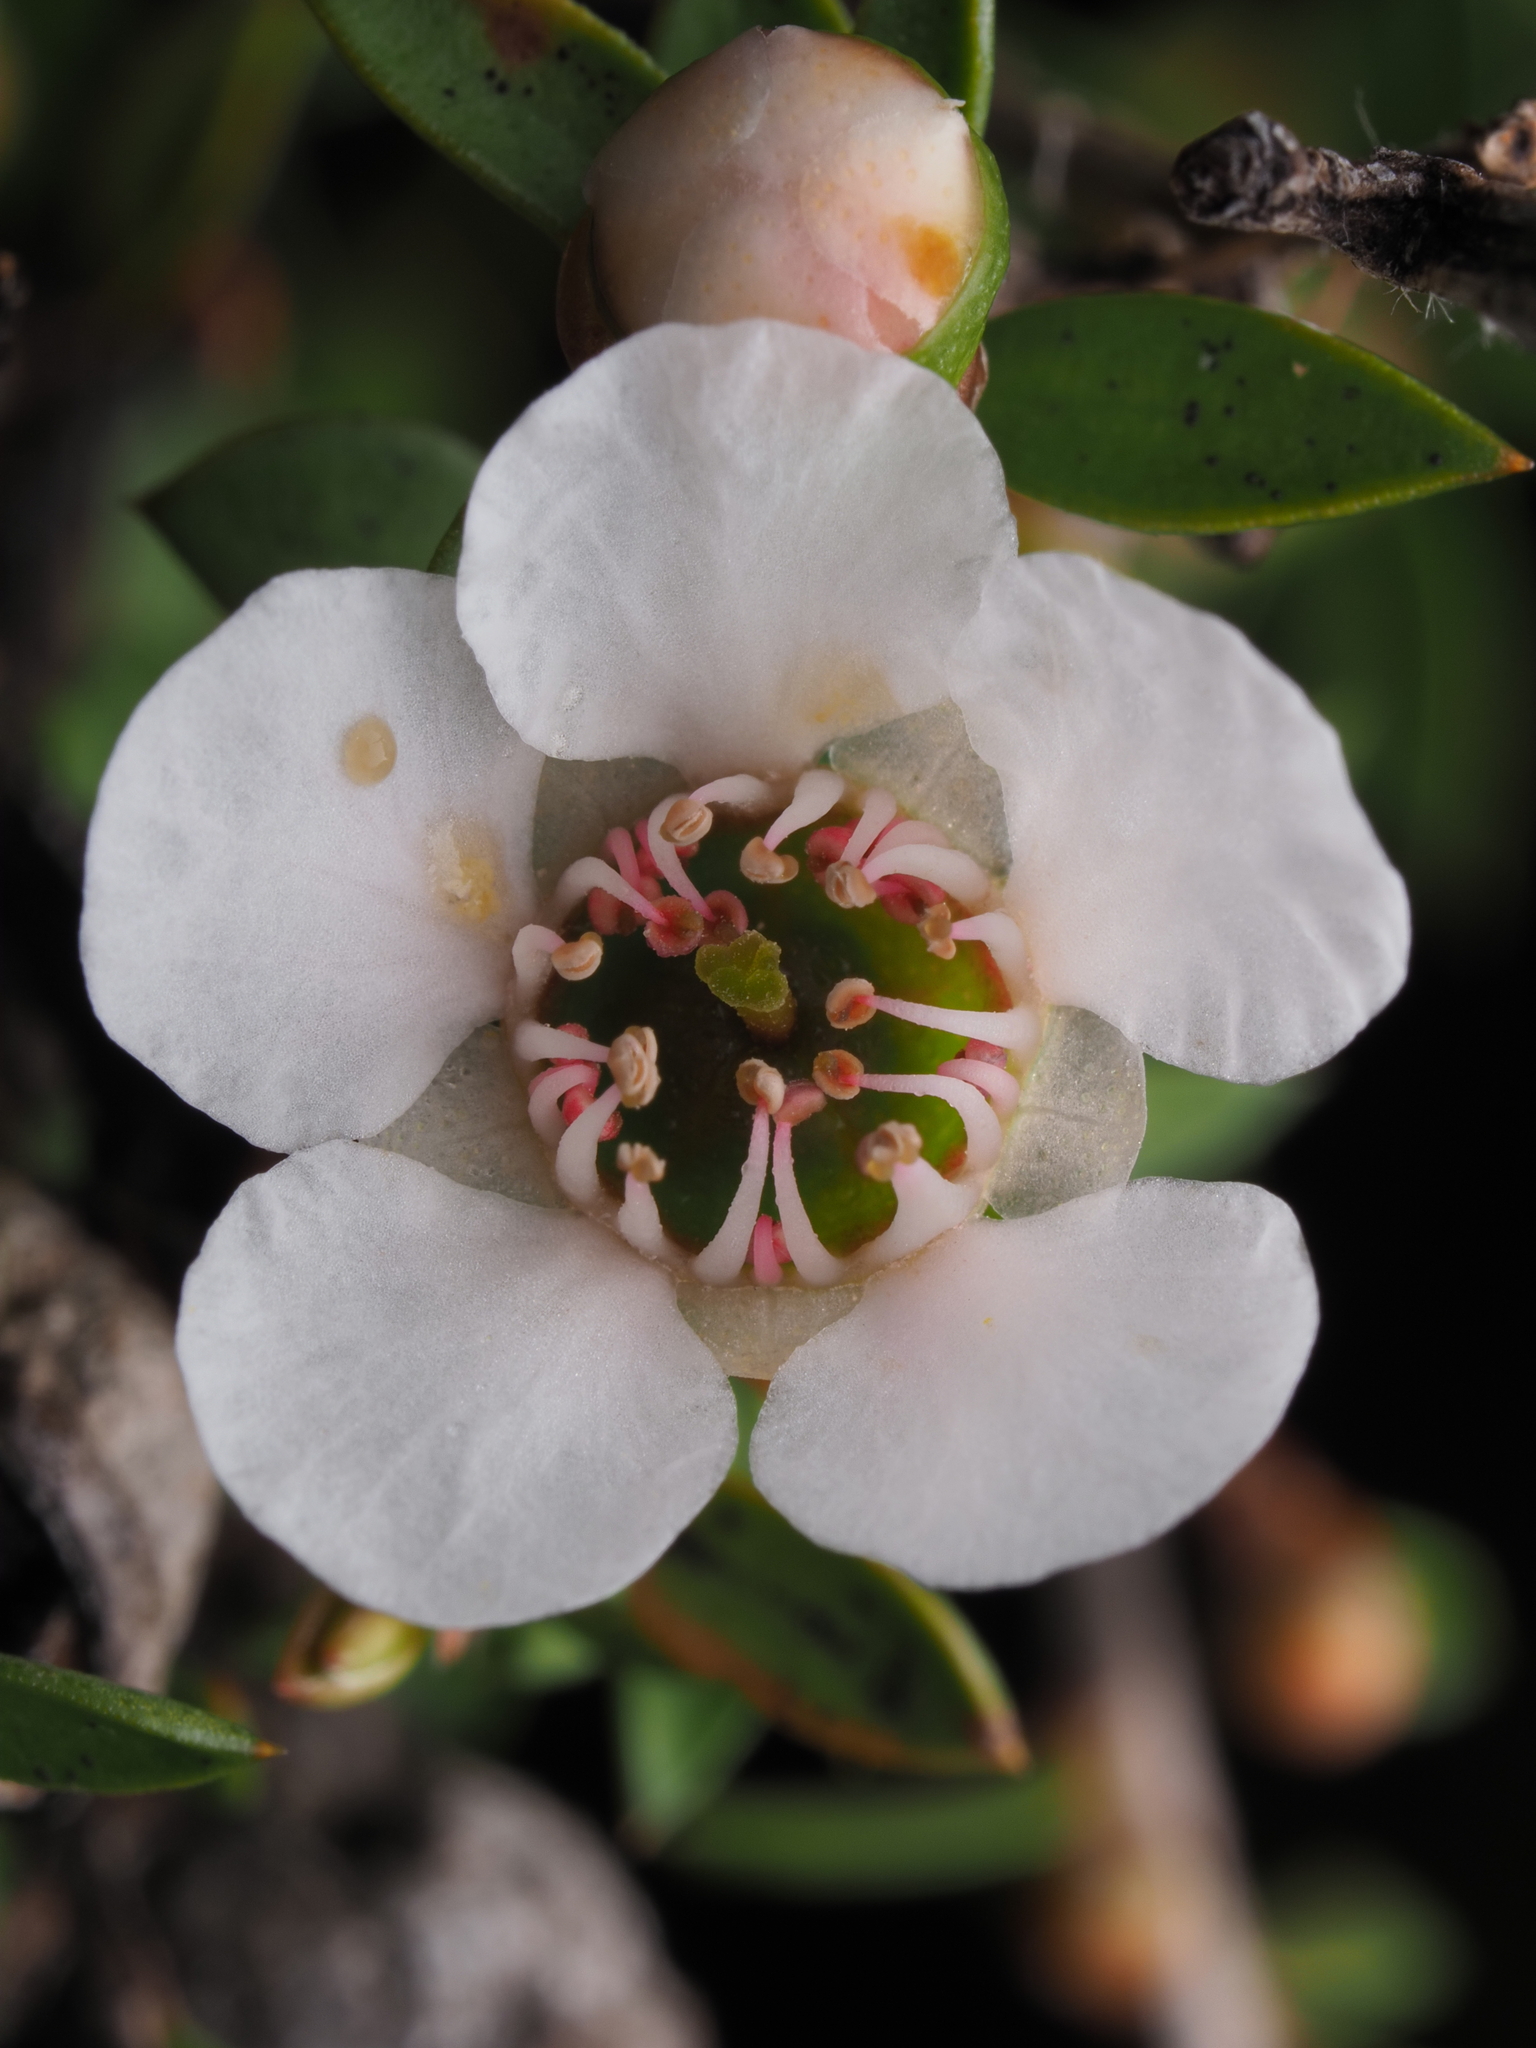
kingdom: Plantae
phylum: Tracheophyta
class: Magnoliopsida
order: Myrtales
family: Myrtaceae
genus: Leptospermum
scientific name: Leptospermum scoparium
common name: Broom tea-tree
